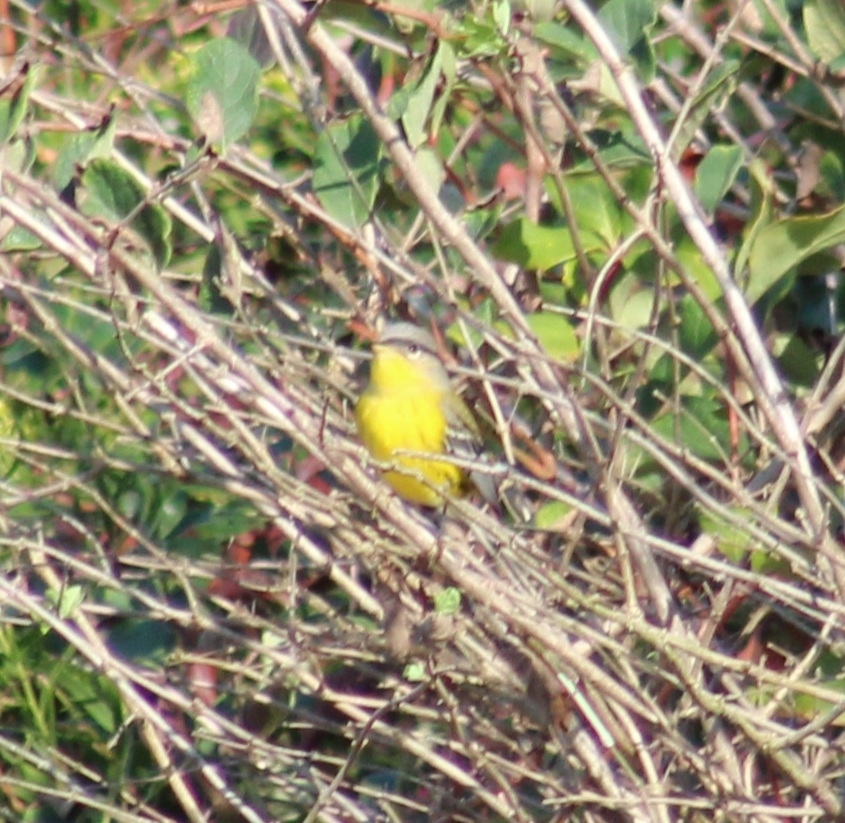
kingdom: Animalia
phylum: Chordata
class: Aves
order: Passeriformes
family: Parulidae
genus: Setophaga
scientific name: Setophaga magnolia
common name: Magnolia warbler
